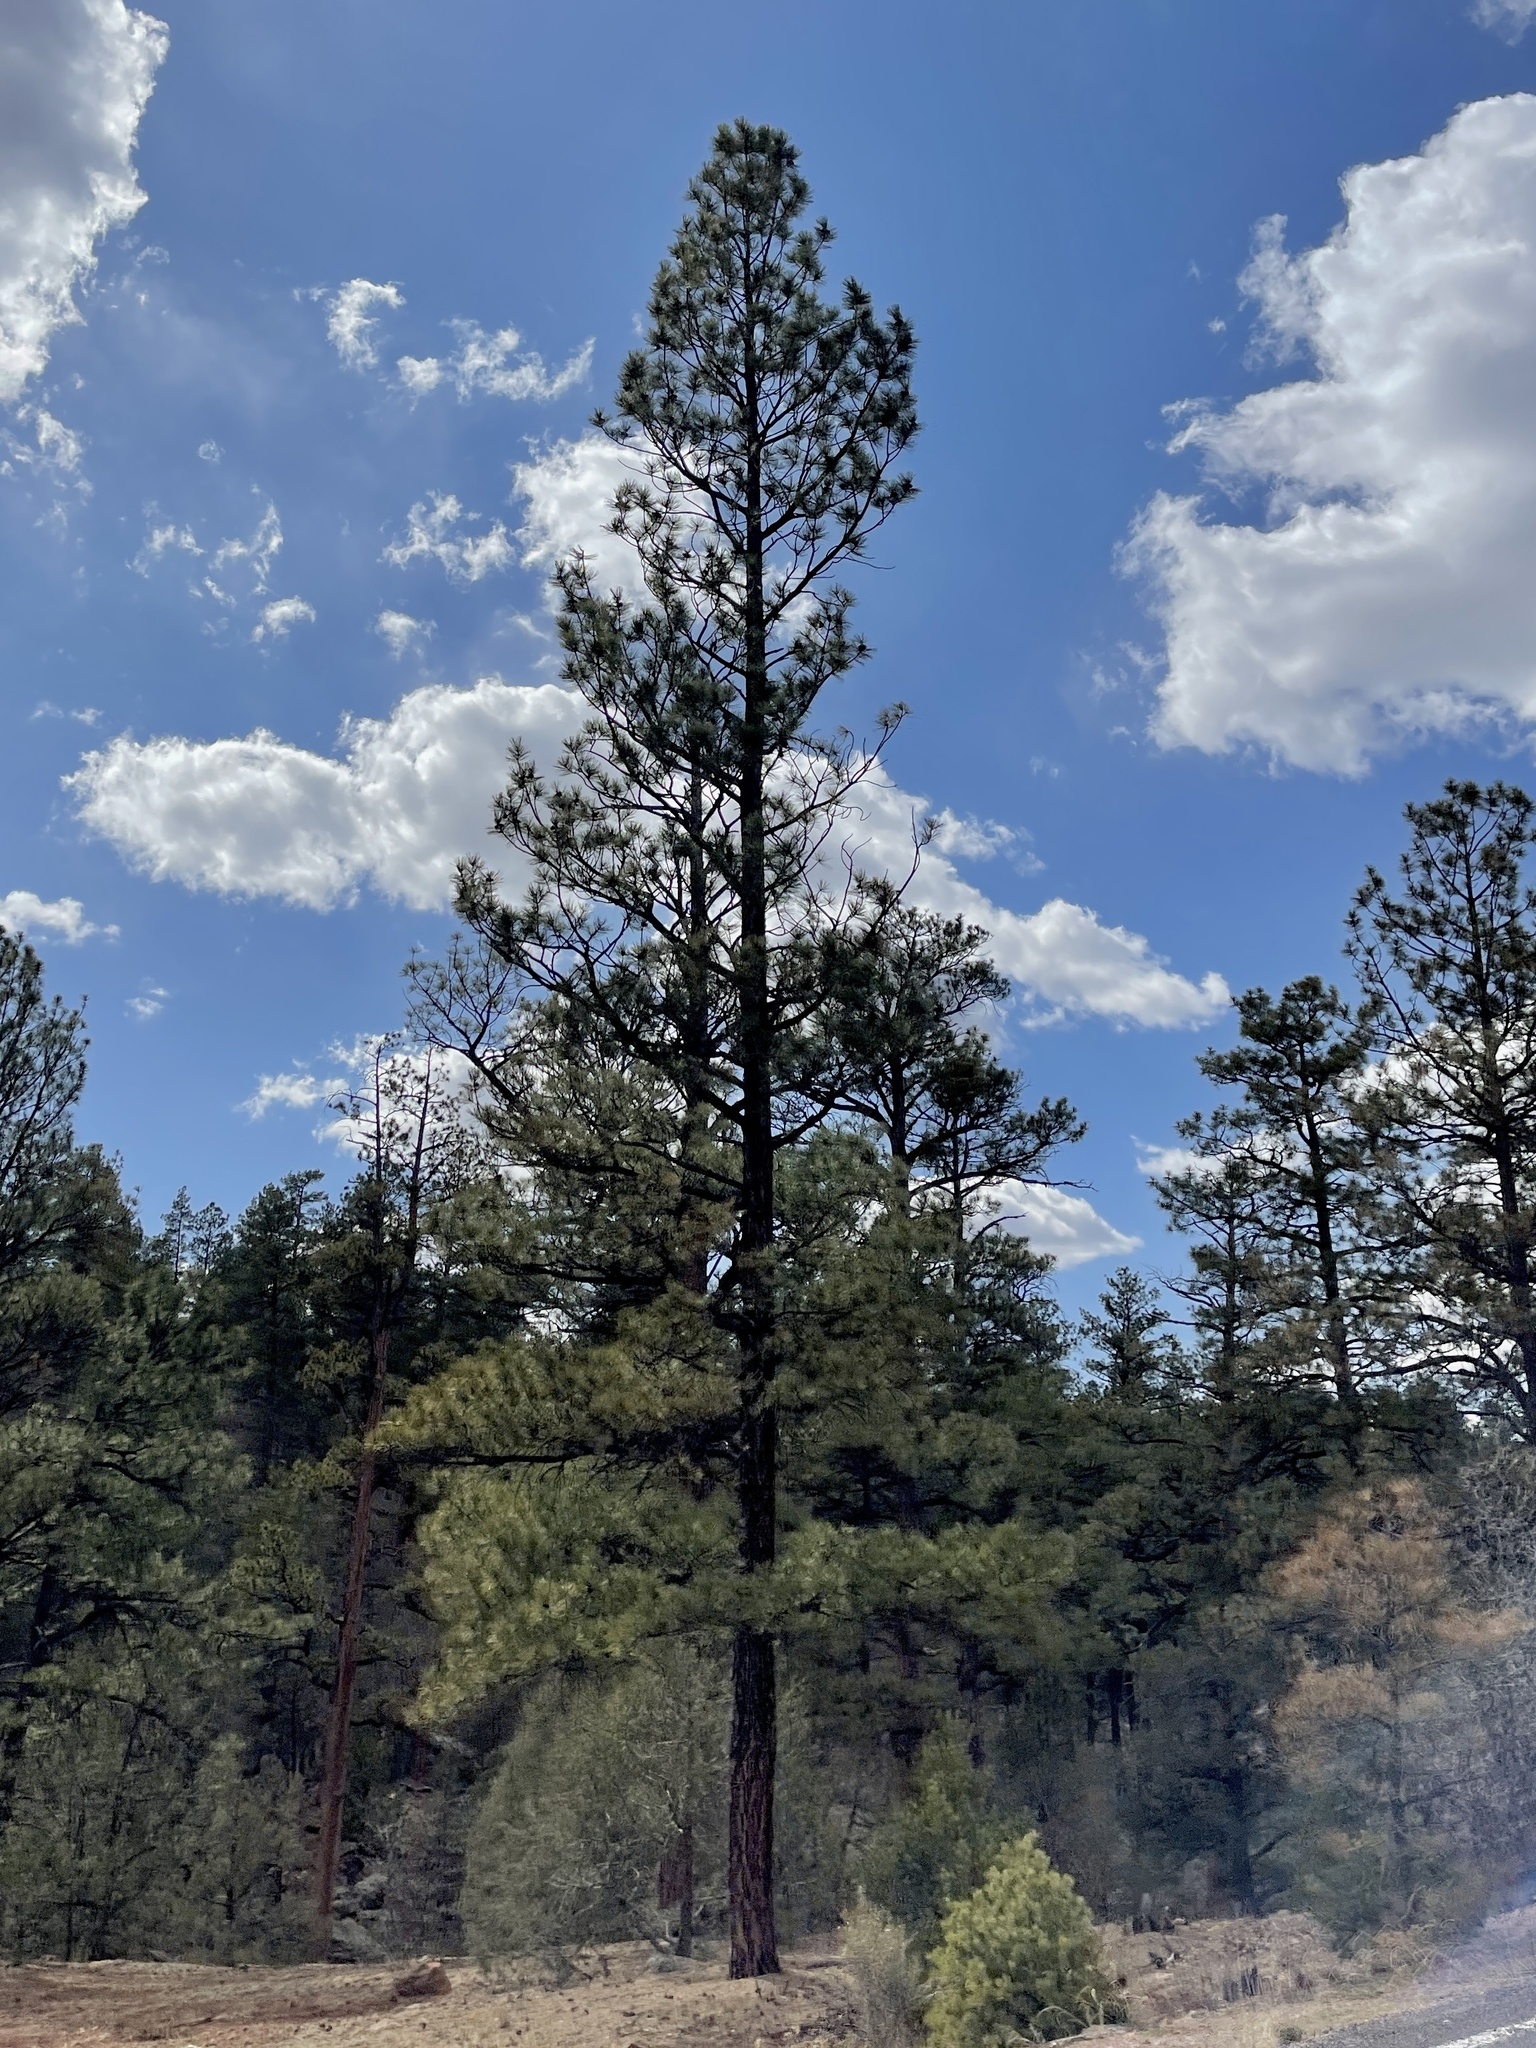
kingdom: Plantae
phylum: Tracheophyta
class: Pinopsida
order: Pinales
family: Pinaceae
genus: Pinus
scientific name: Pinus ponderosa
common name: Western yellow-pine
